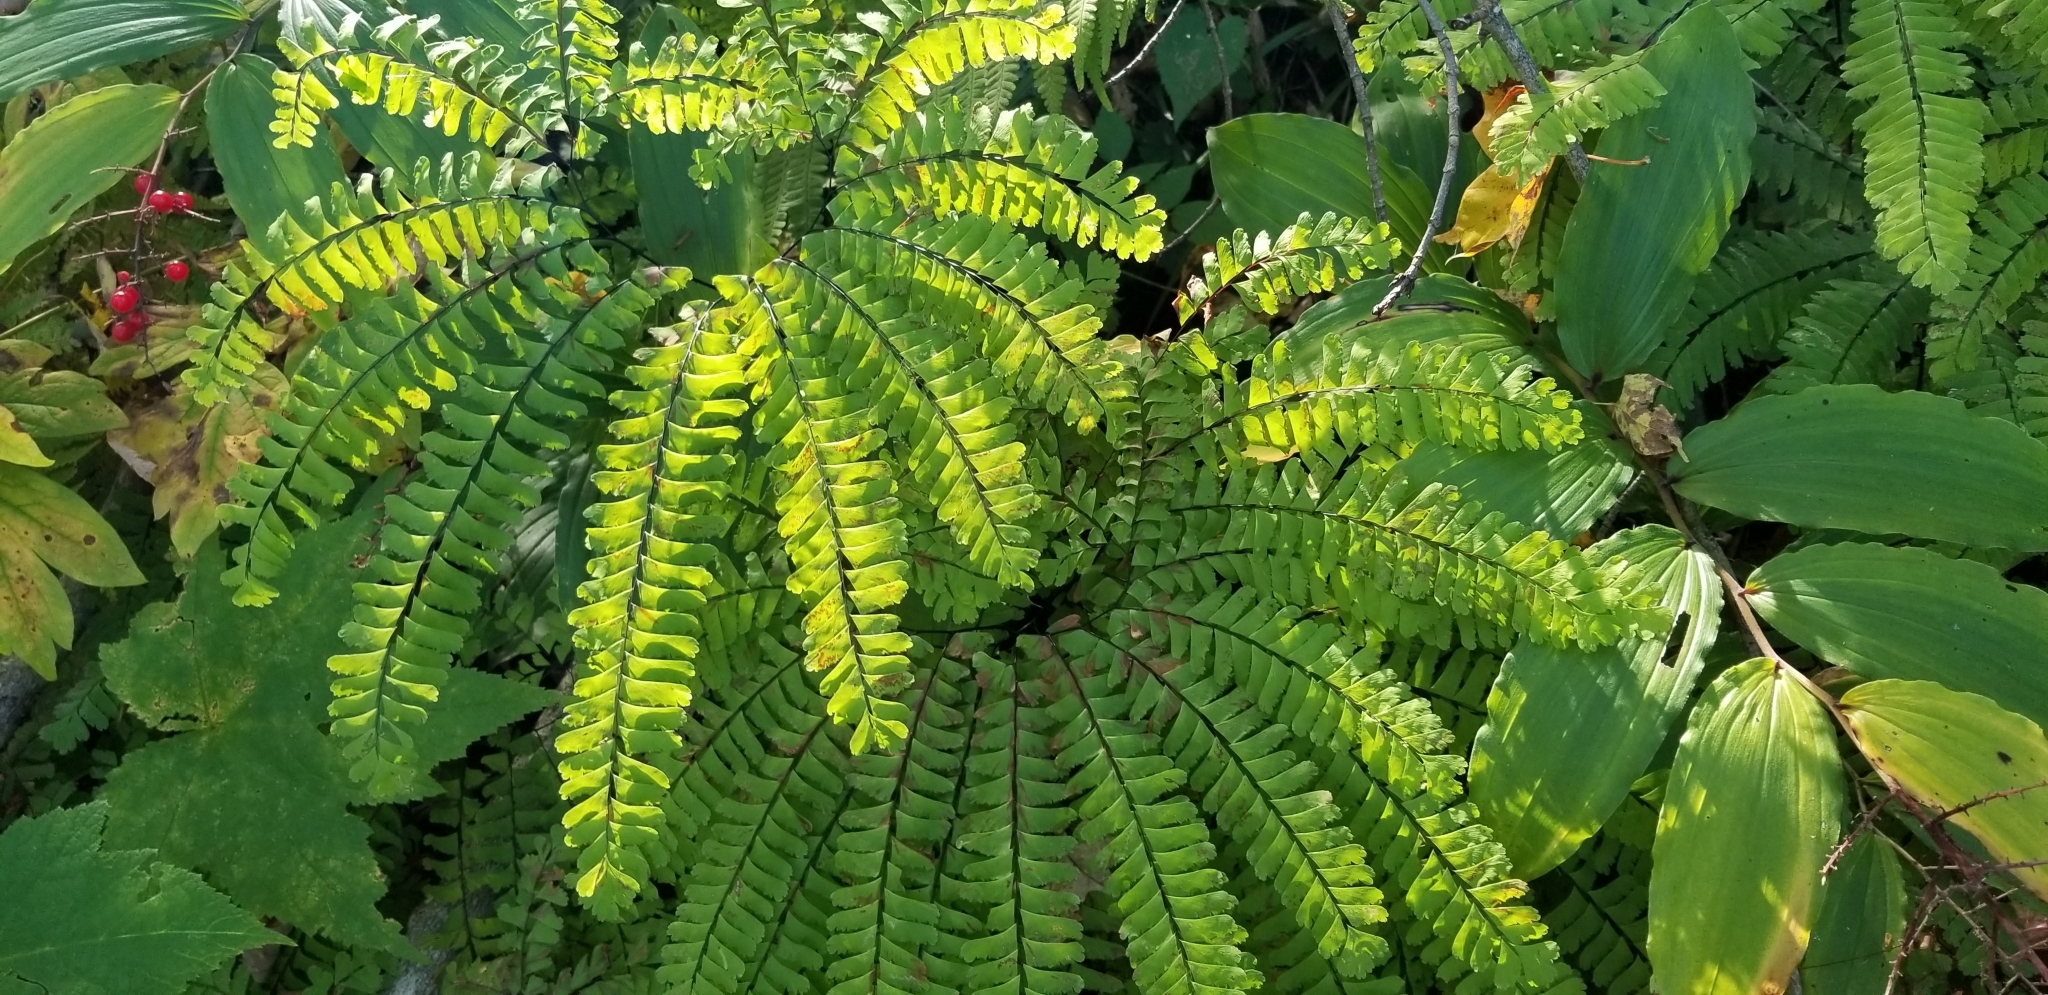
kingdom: Plantae
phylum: Tracheophyta
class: Polypodiopsida
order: Polypodiales
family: Pteridaceae
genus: Adiantum
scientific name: Adiantum pedatum
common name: Five-finger fern
